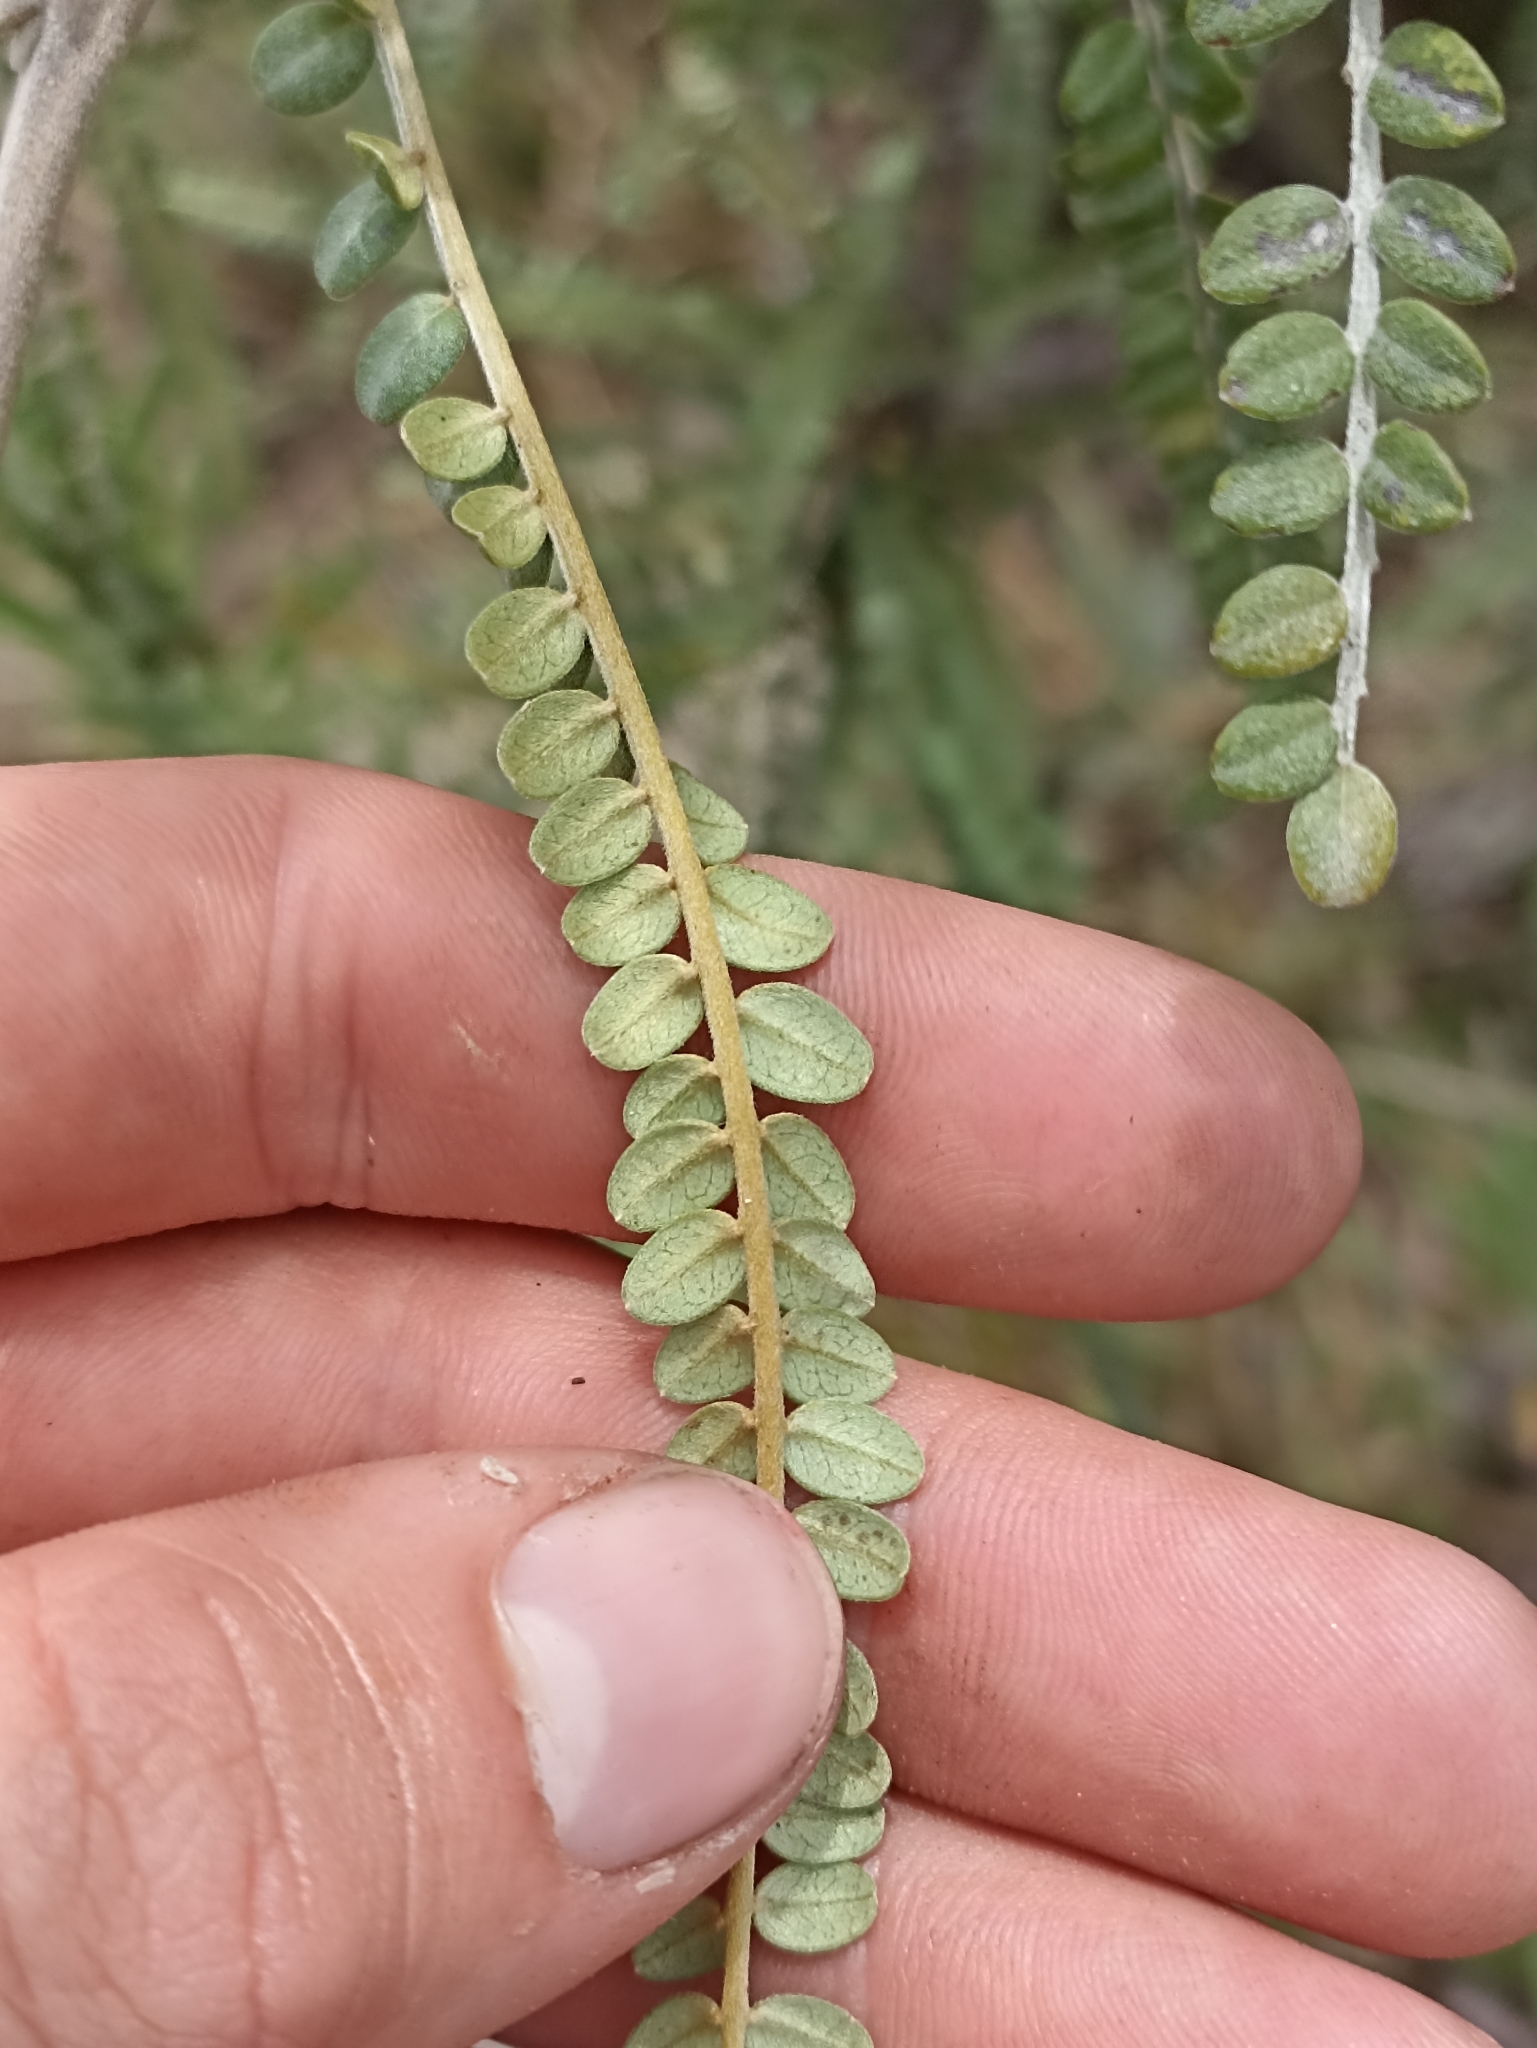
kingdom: Plantae
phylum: Tracheophyta
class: Magnoliopsida
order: Fabales
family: Fabaceae
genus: Sophora
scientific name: Sophora chathamica
